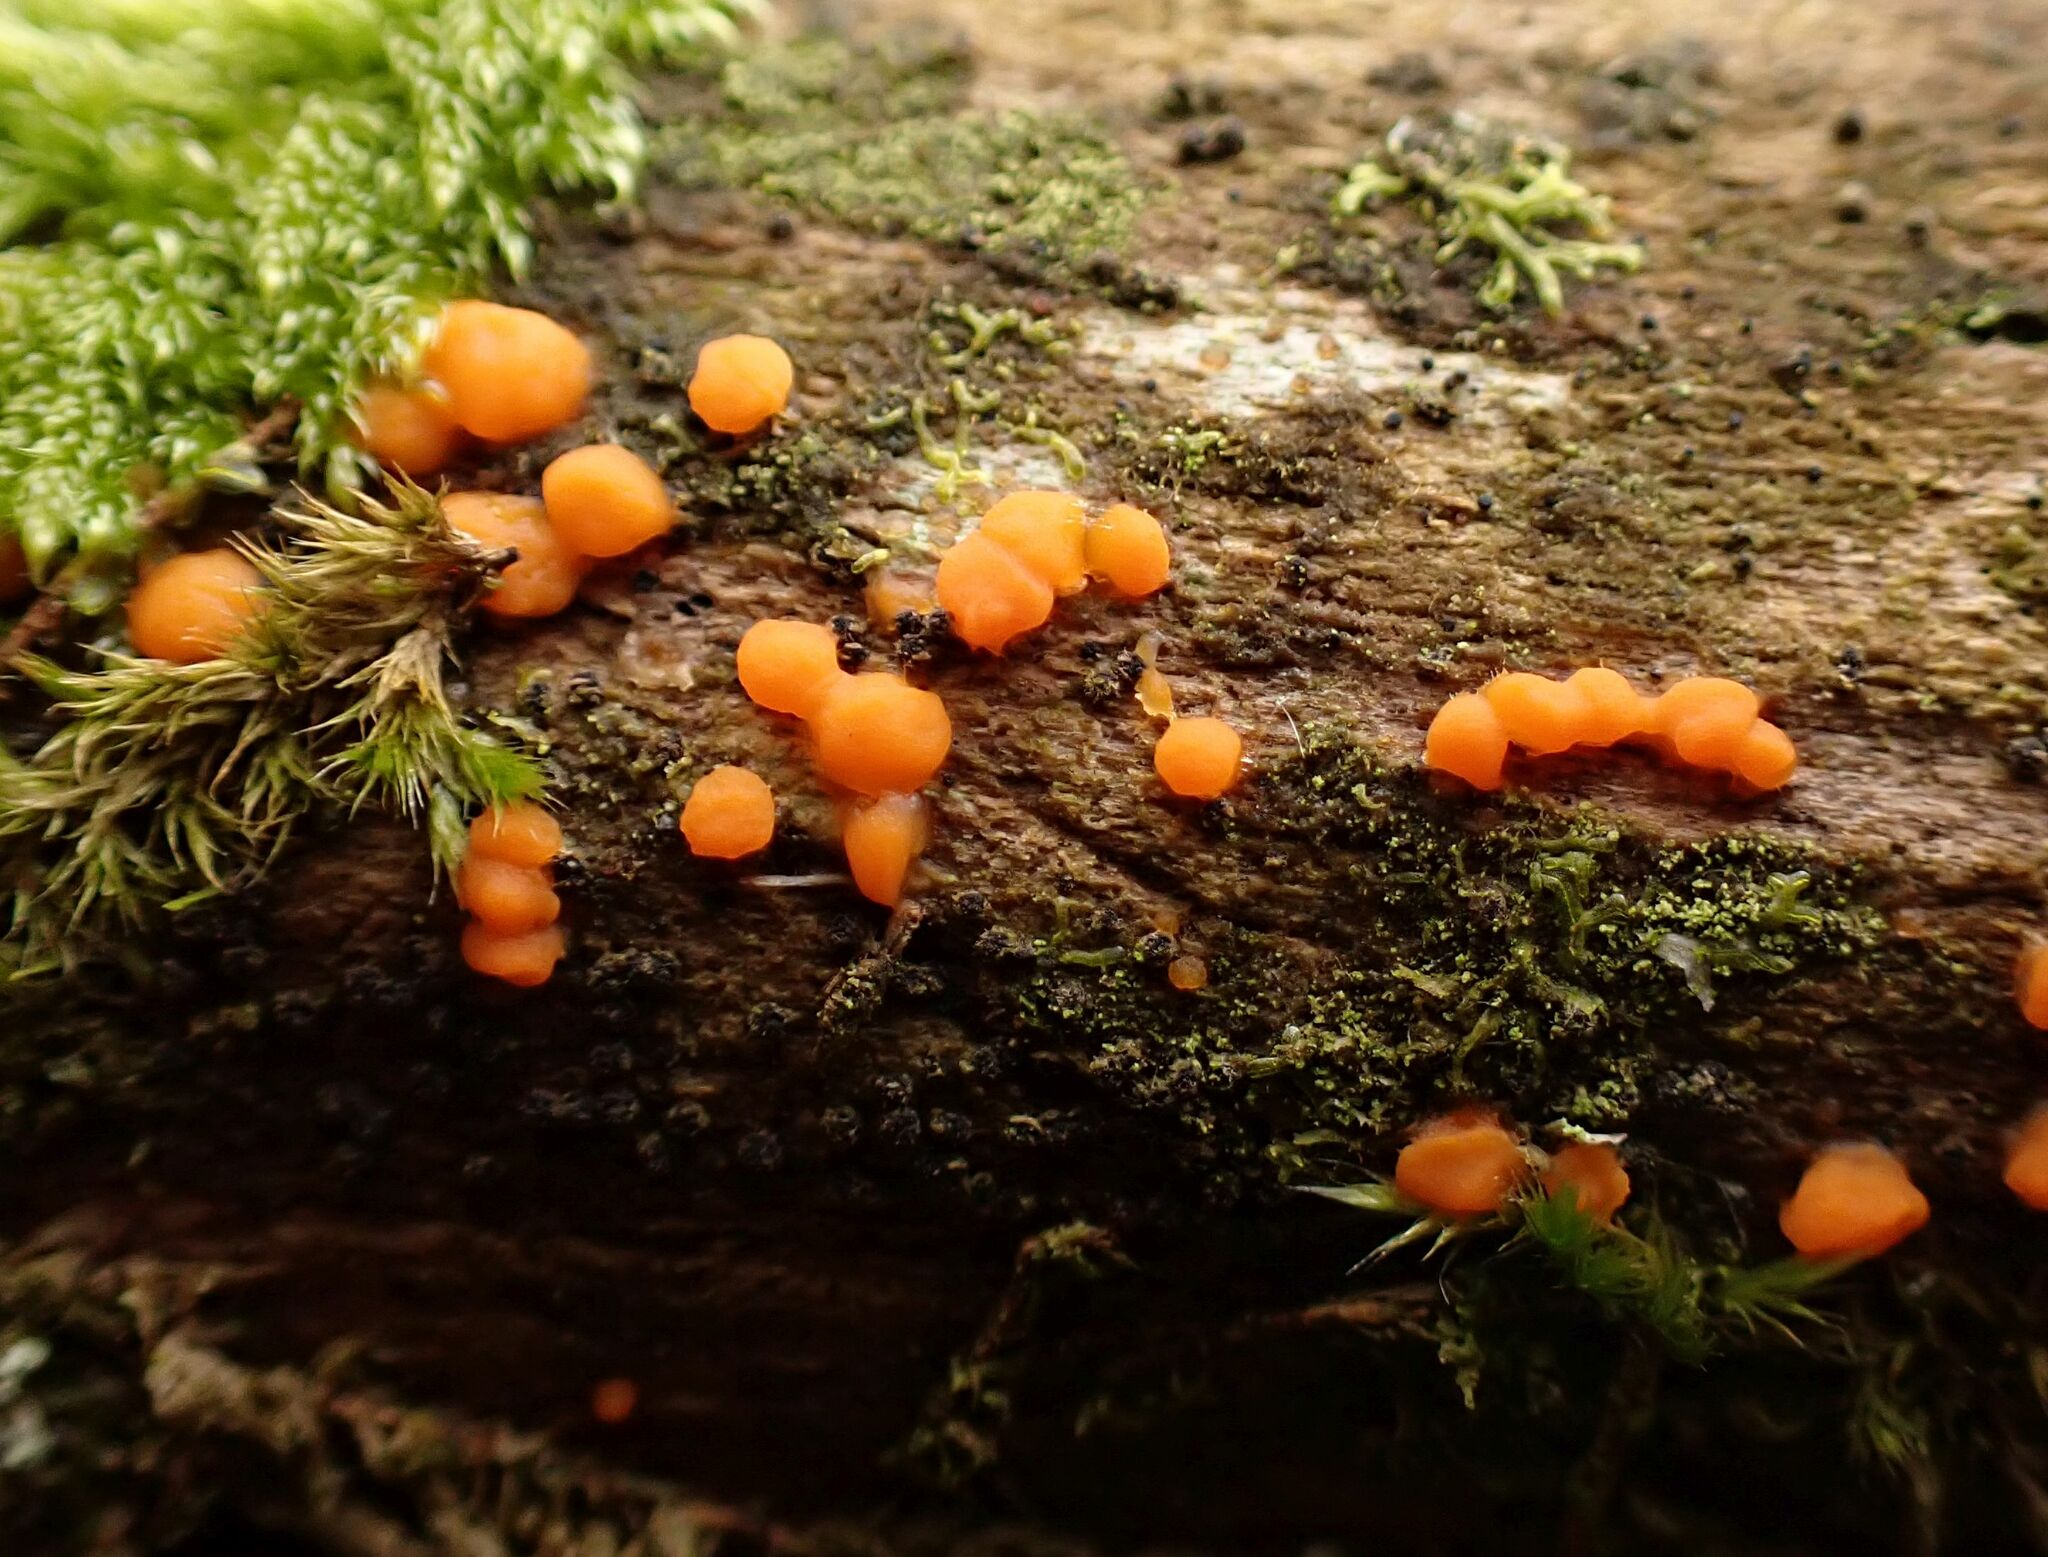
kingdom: Fungi
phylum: Basidiomycota
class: Dacrymycetes
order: Dacrymycetales
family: Dacrymycetaceae
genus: Dacrymyces
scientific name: Dacrymyces stillatus
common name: Common jelly spot
